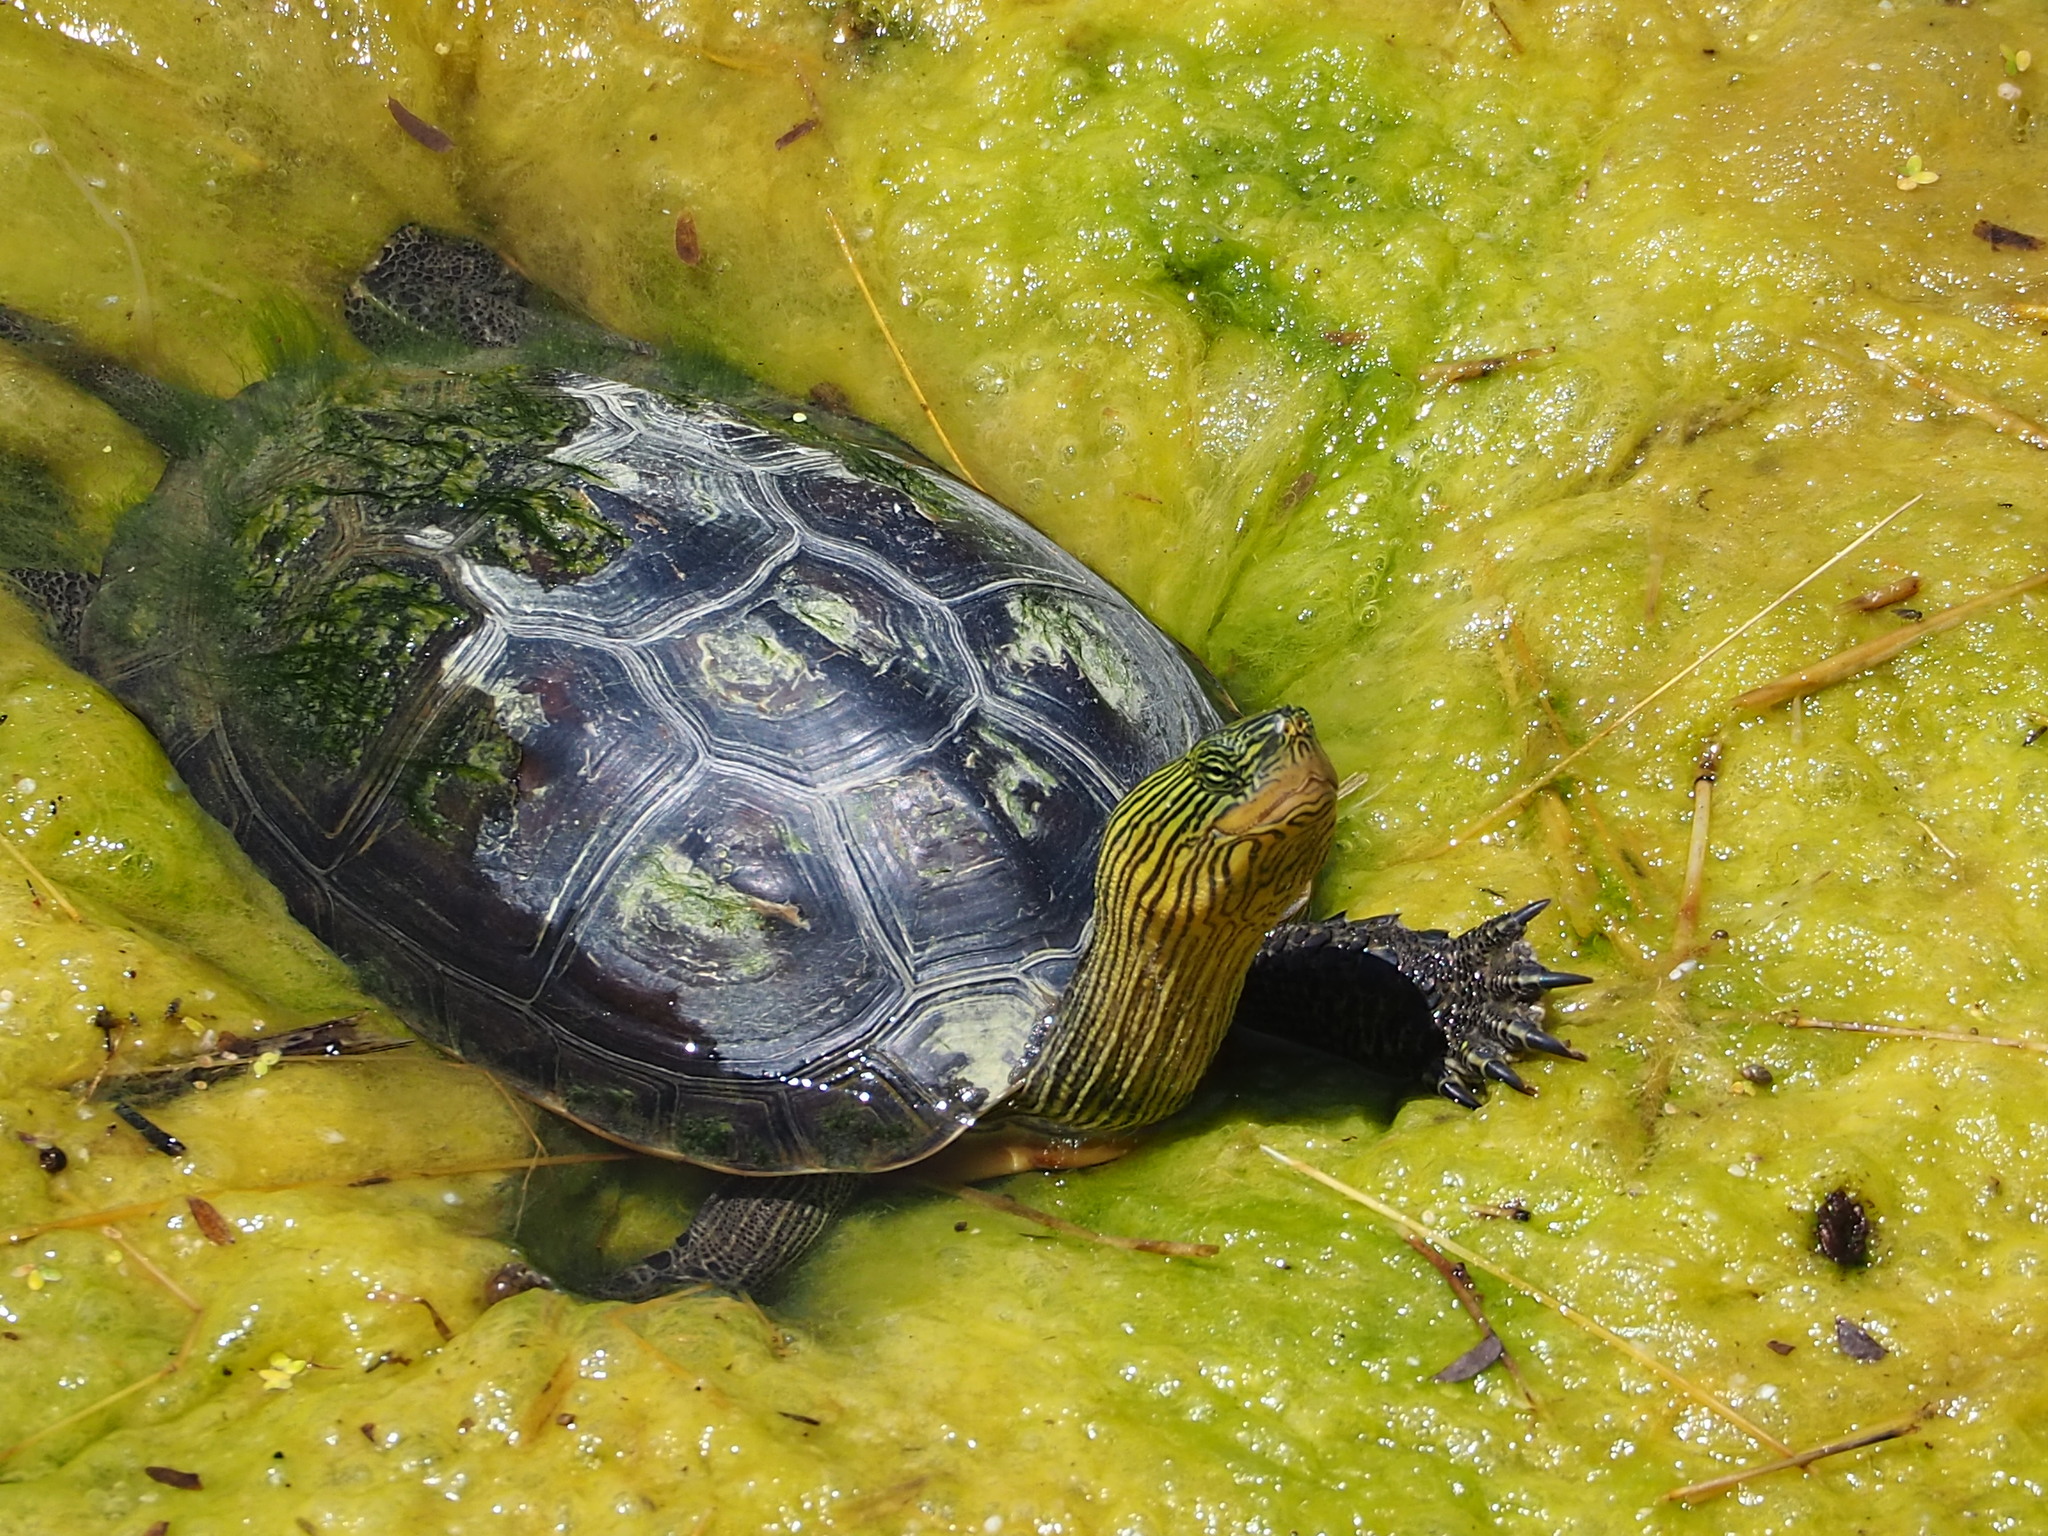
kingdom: Animalia
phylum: Chordata
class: Testudines
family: Geoemydidae
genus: Mauremys
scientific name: Mauremys sinensis
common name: Chinese stripe-necked turtle
